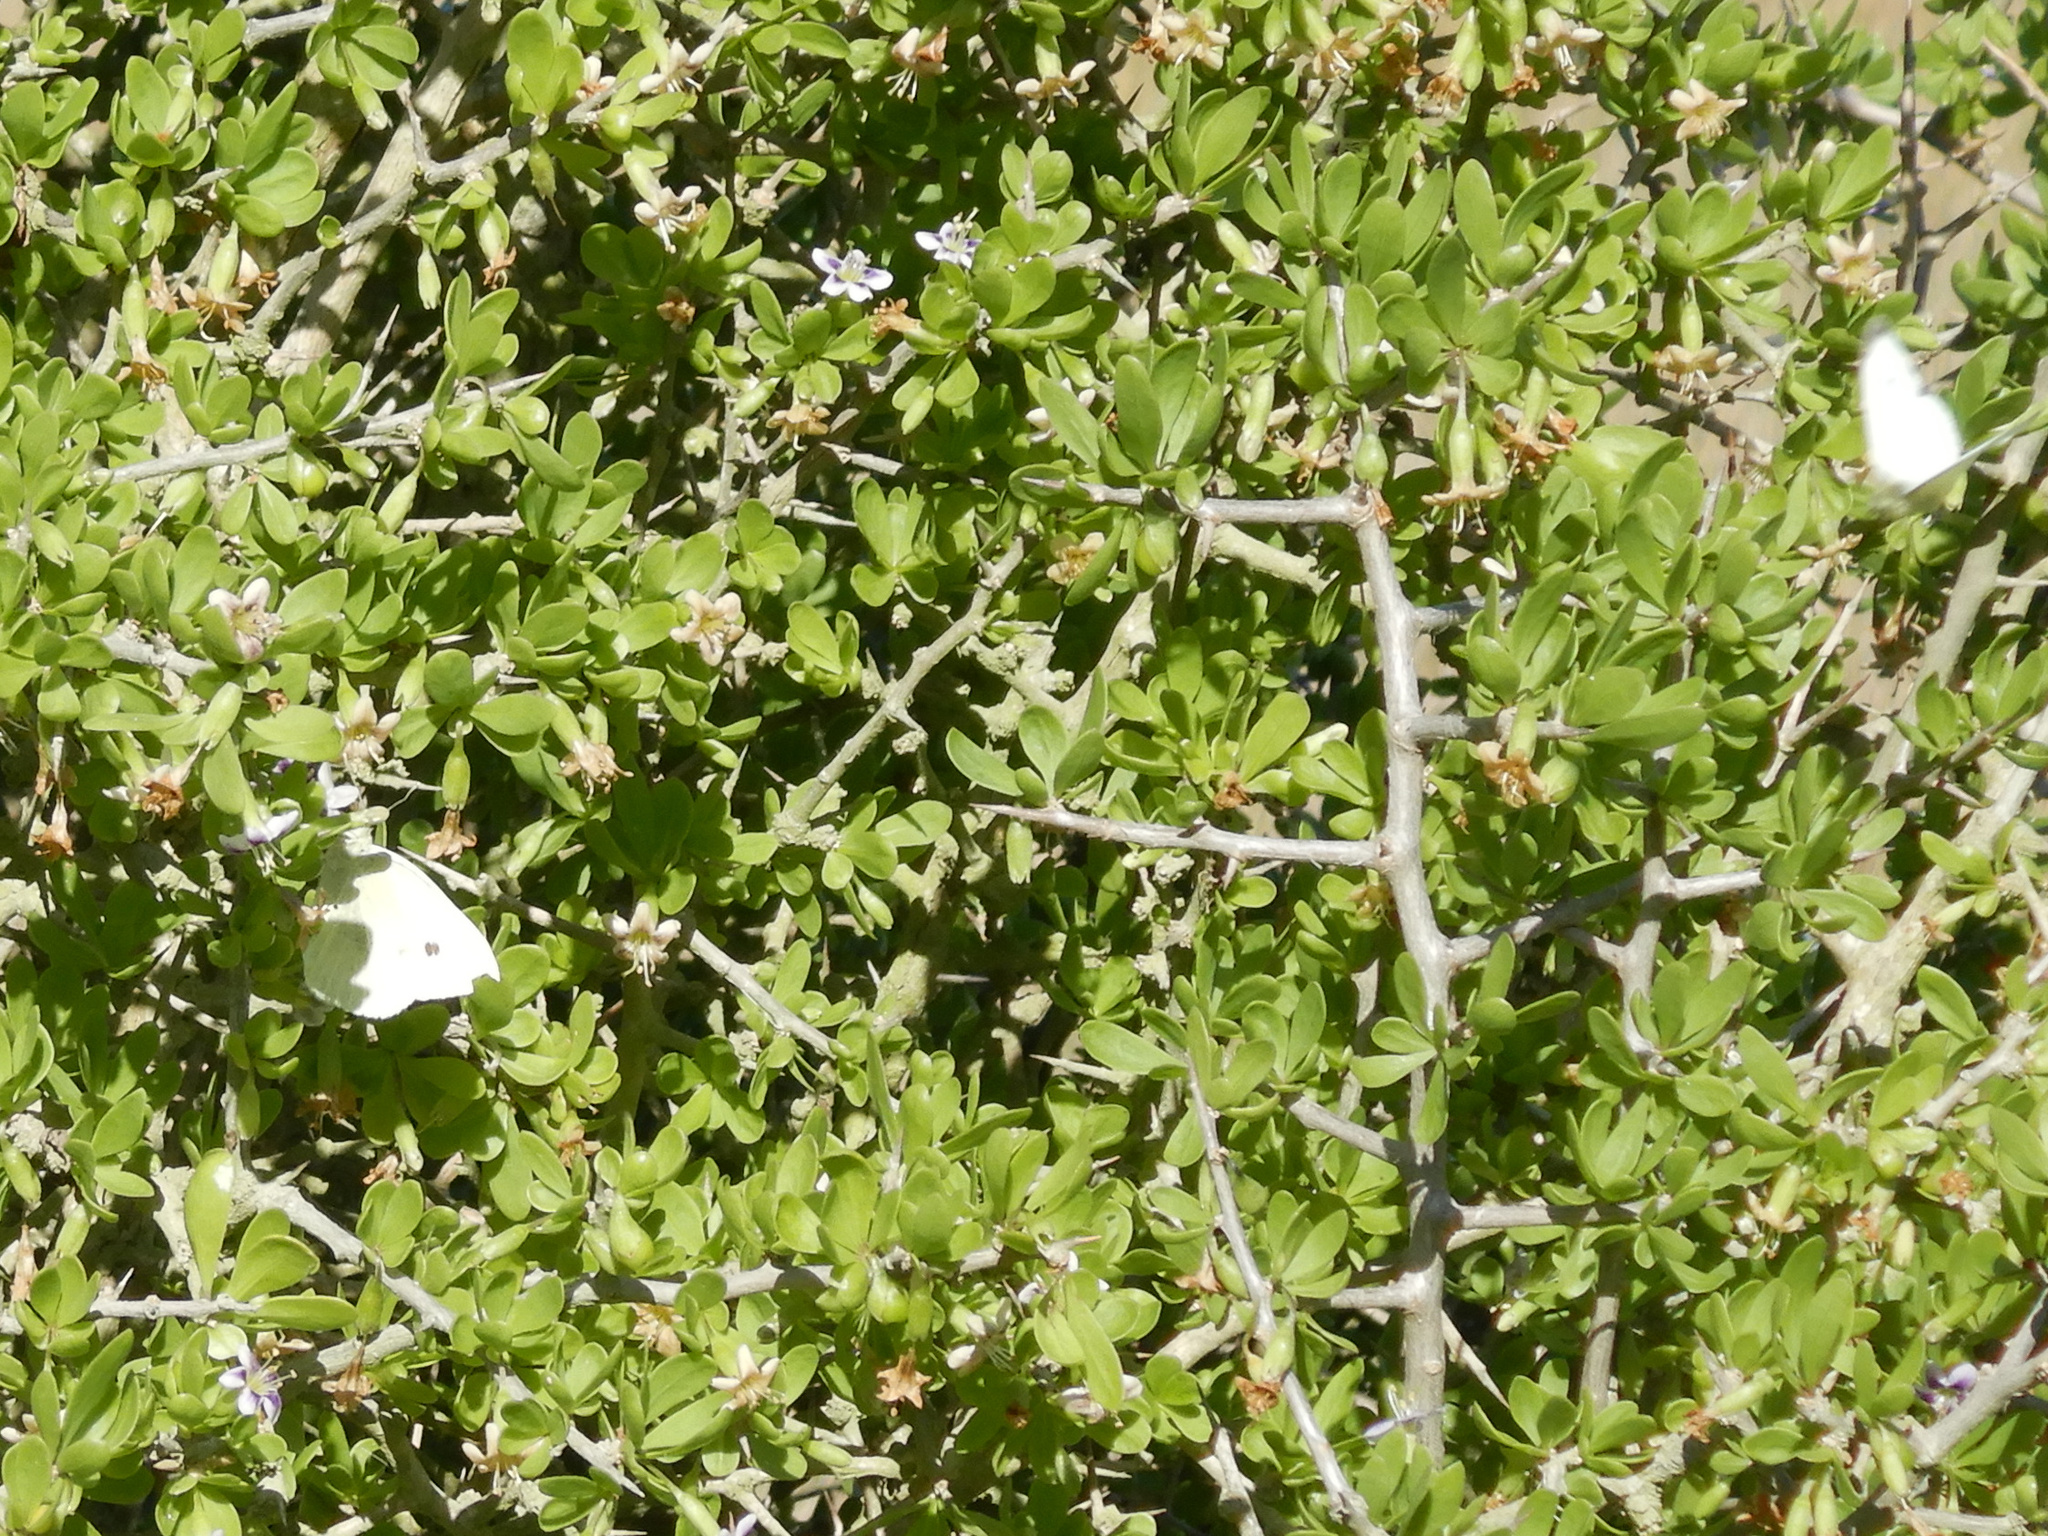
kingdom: Animalia
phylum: Arthropoda
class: Insecta
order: Lepidoptera
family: Pieridae
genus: Pieris
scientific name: Pieris rapae
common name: Small white
